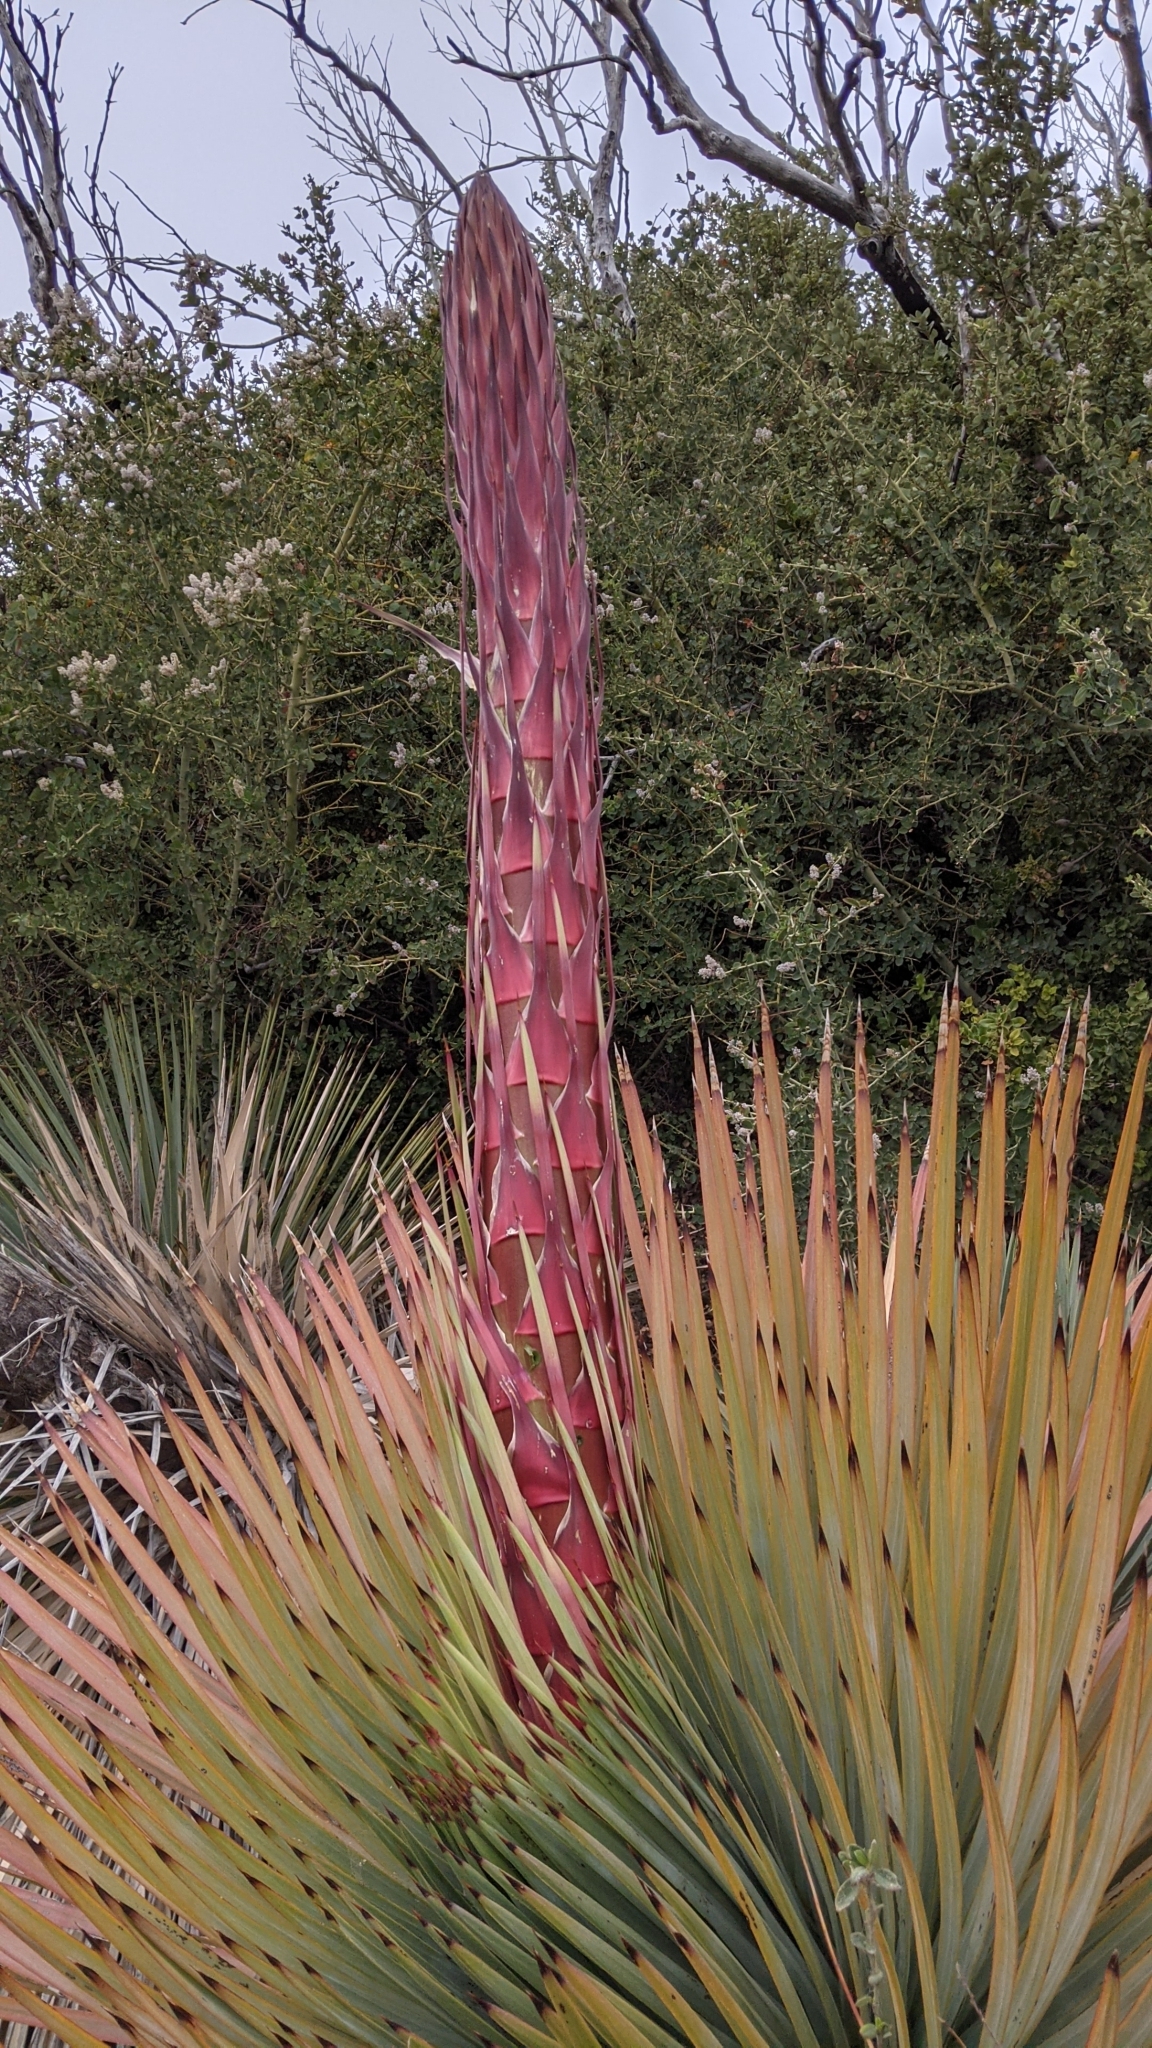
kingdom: Plantae
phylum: Tracheophyta
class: Liliopsida
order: Asparagales
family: Asparagaceae
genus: Hesperoyucca
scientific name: Hesperoyucca whipplei
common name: Our lord's-candle
